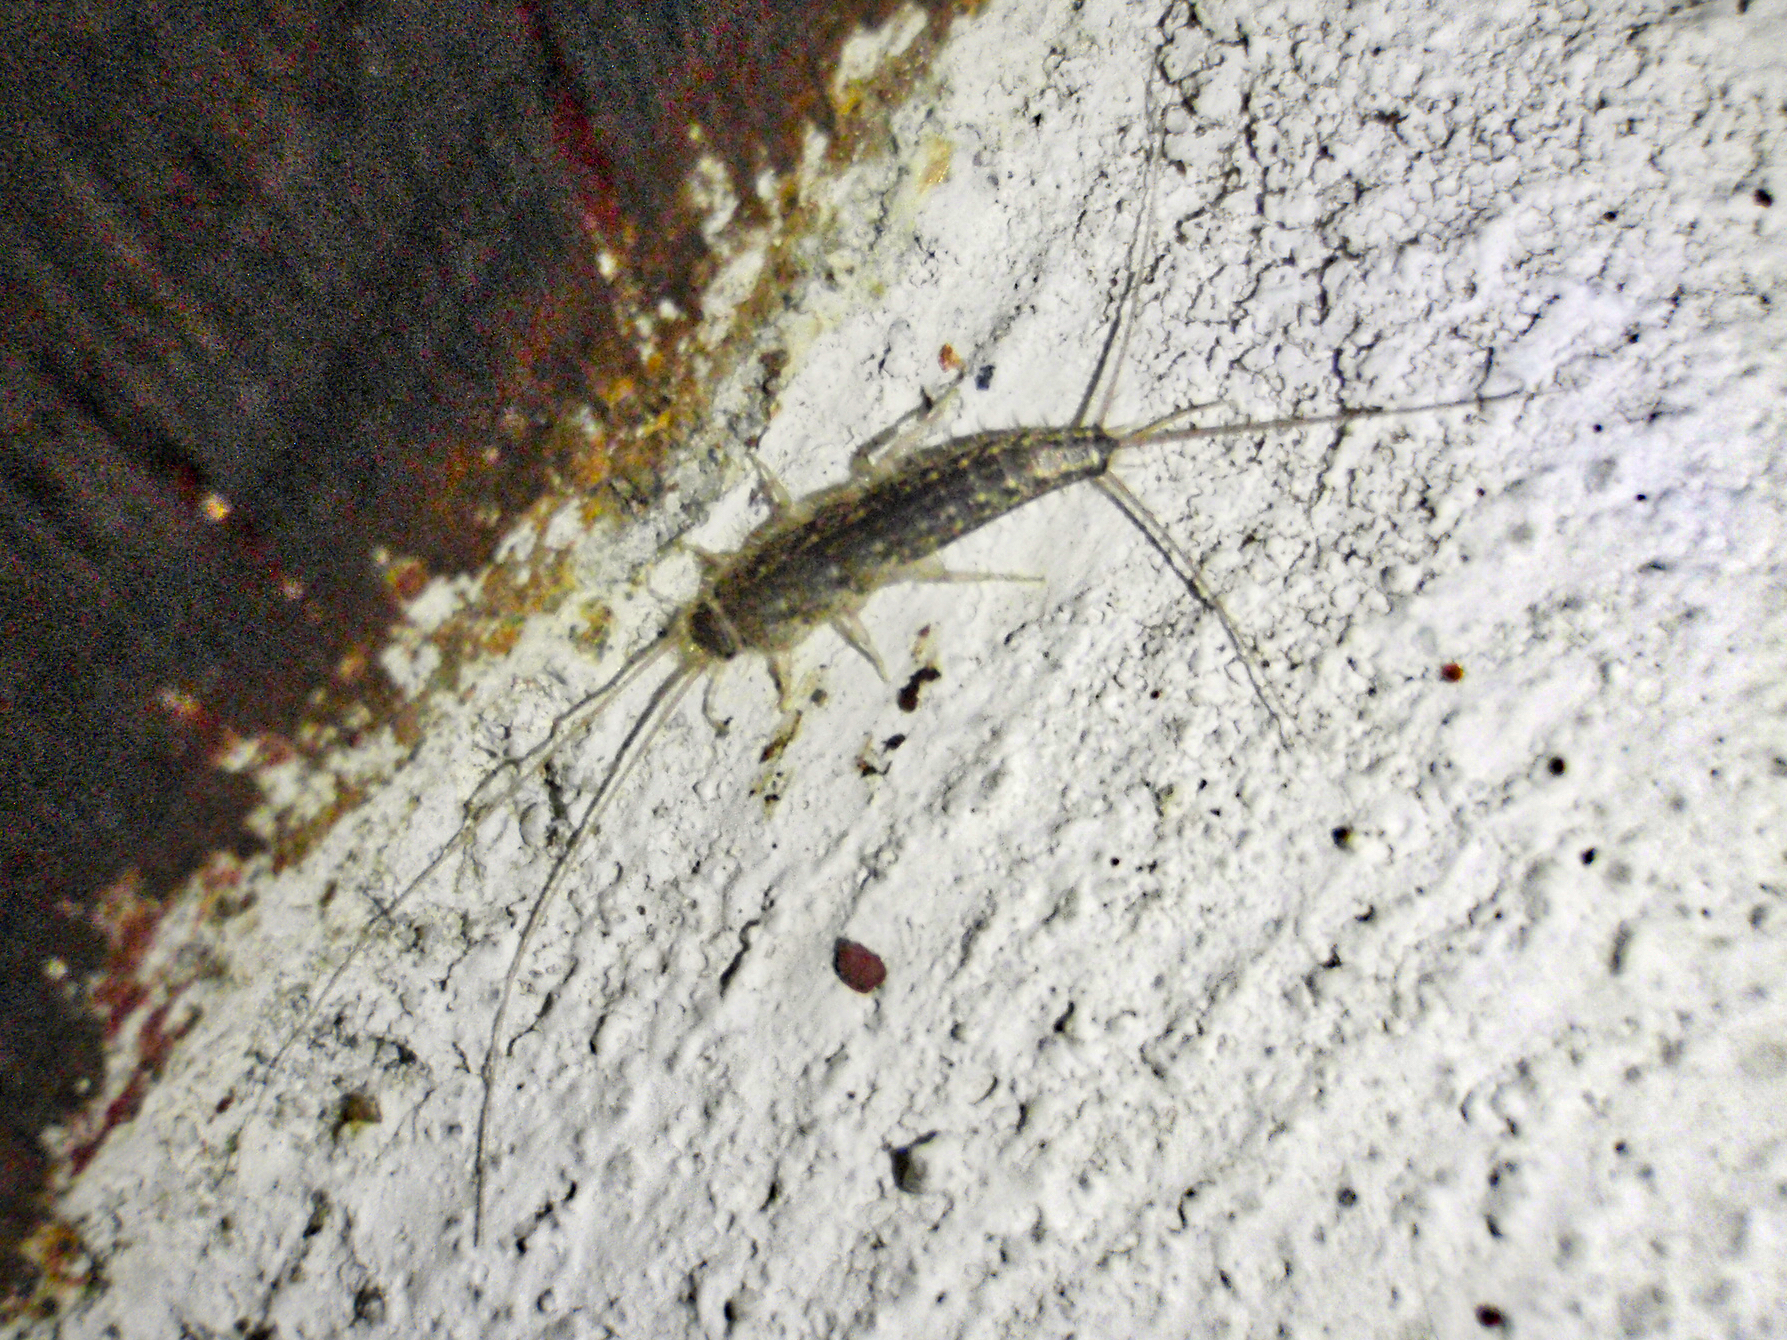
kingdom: Animalia
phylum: Arthropoda
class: Insecta
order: Zygentoma
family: Lepismatidae
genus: Ctenolepisma
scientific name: Ctenolepisma lineata
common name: Four-lined silverfish
